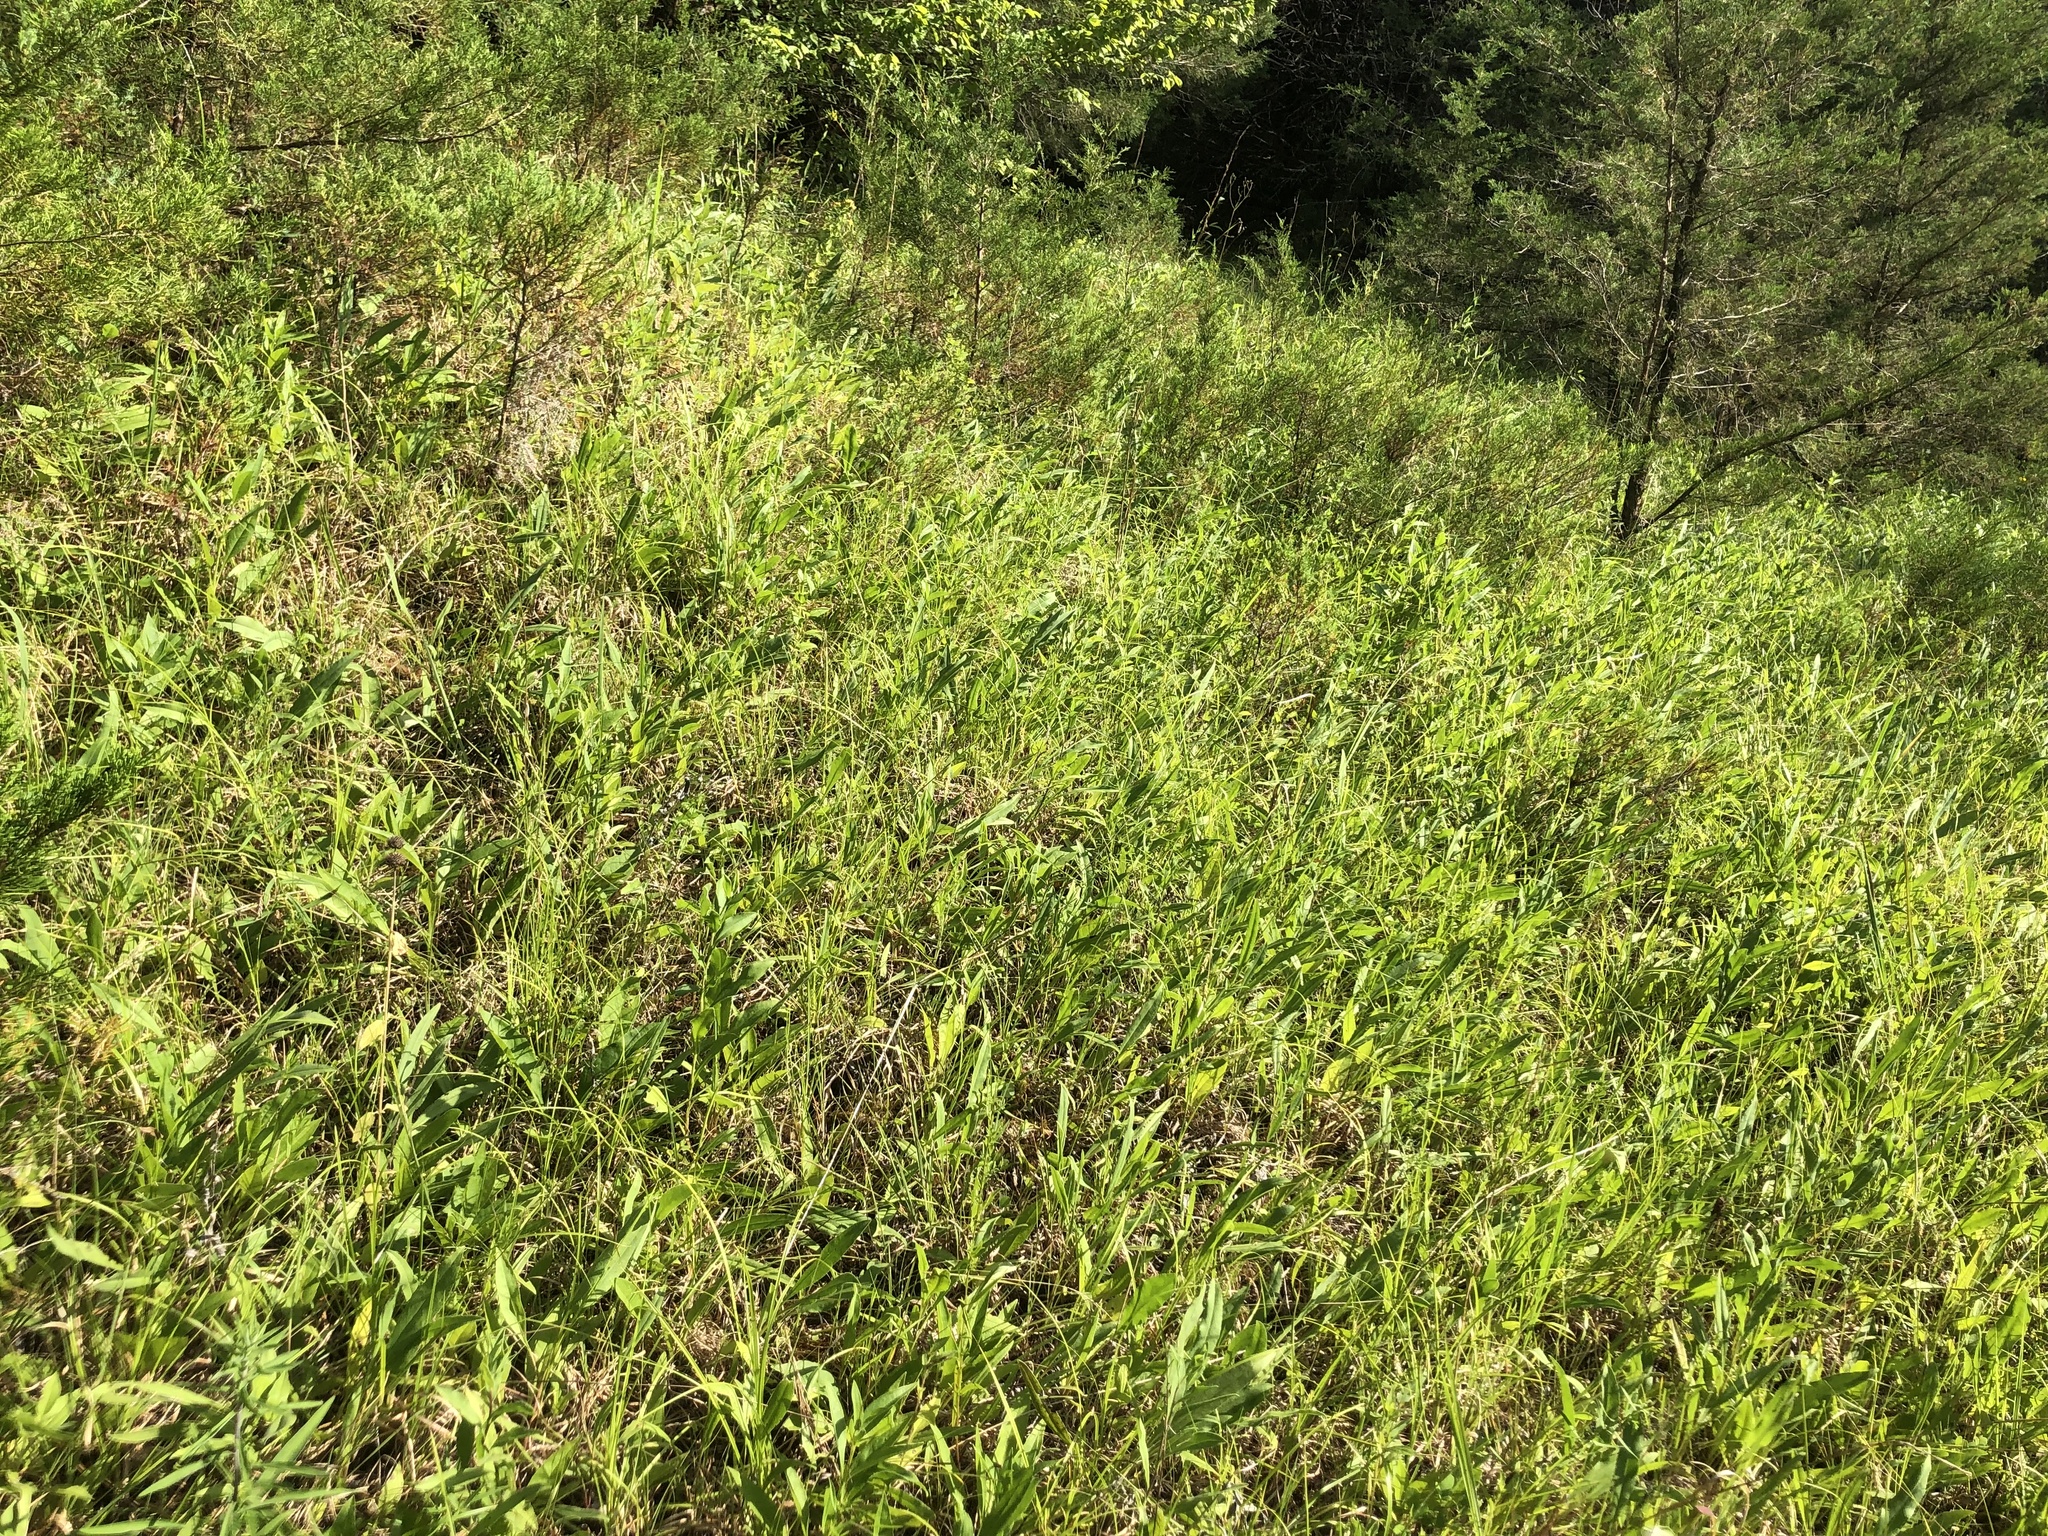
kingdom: Plantae
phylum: Tracheophyta
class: Magnoliopsida
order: Asterales
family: Asteraceae
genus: Solidago
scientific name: Solidago rigida
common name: Rigid goldenrod
